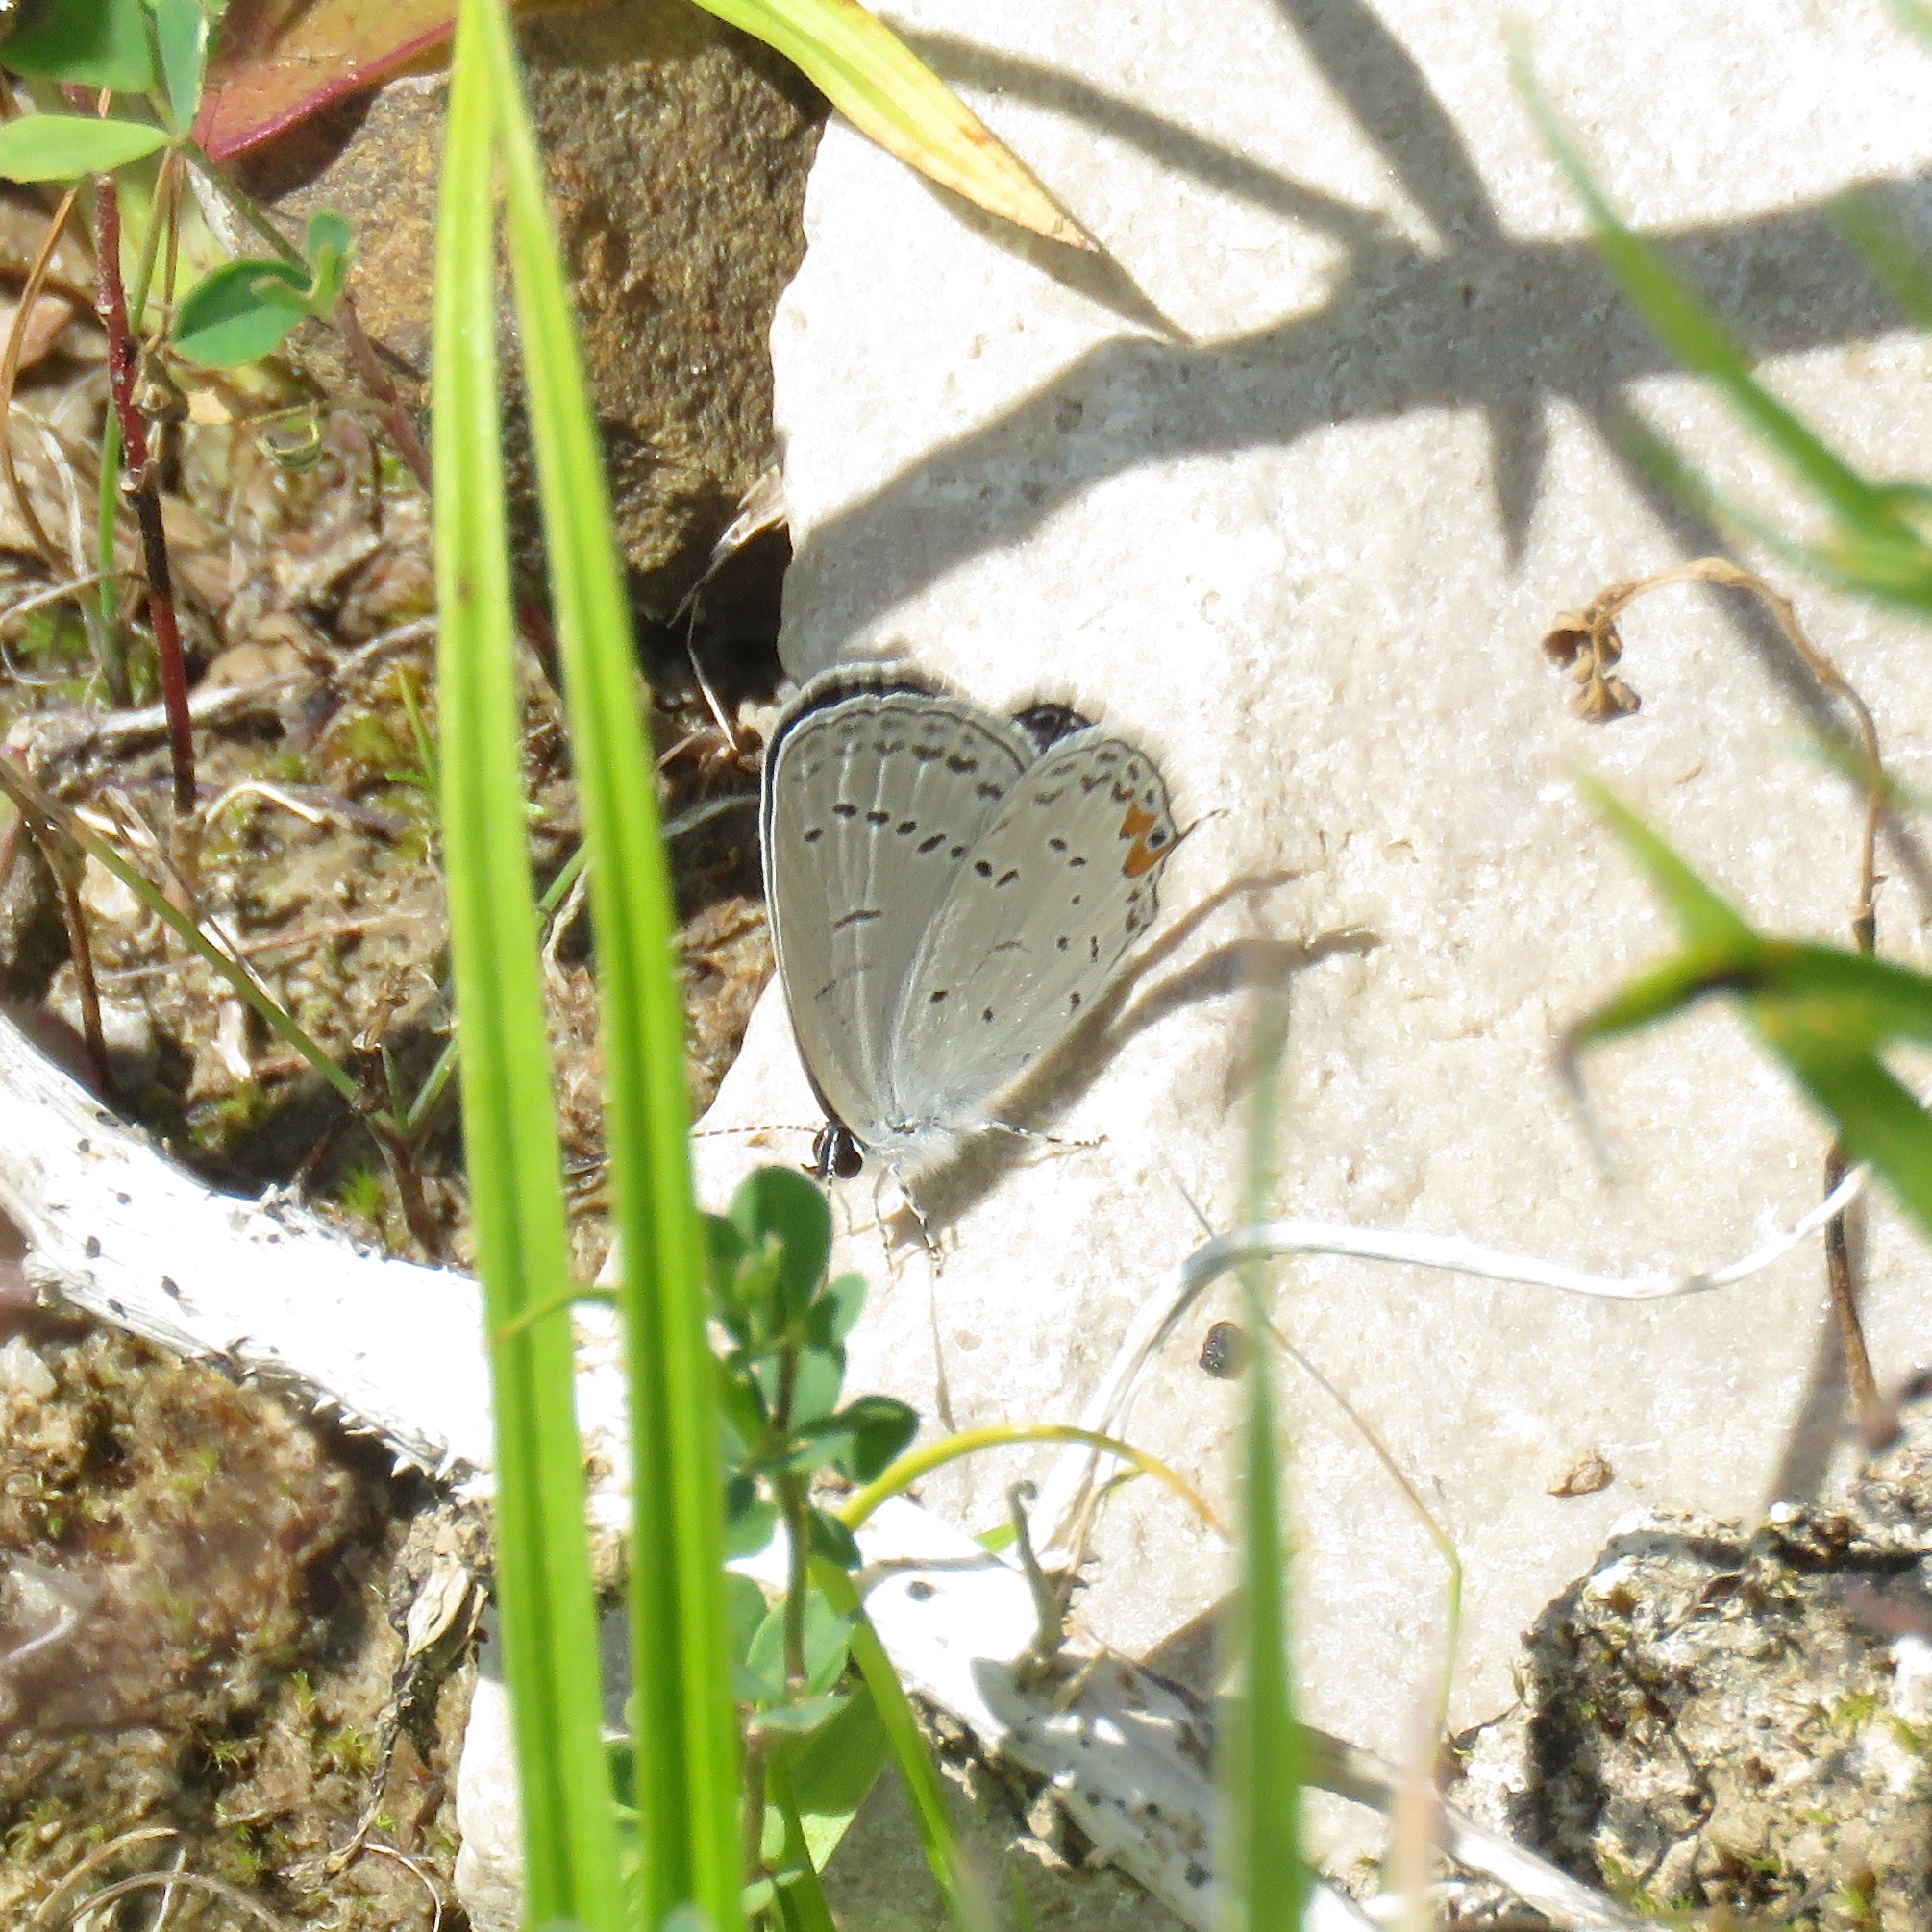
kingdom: Animalia
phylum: Arthropoda
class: Insecta
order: Lepidoptera
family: Lycaenidae
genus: Elkalyce
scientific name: Elkalyce comyntas
